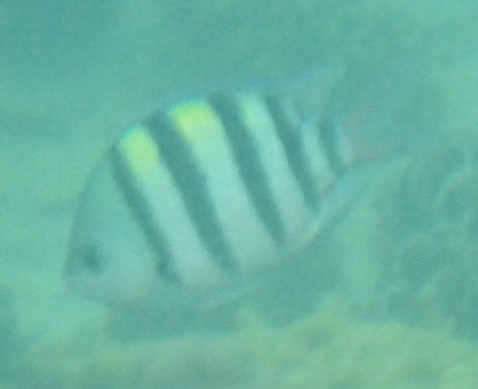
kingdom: Animalia
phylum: Chordata
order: Perciformes
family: Pomacentridae
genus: Abudefduf
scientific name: Abudefduf vaigiensis
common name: Indo-pacific sergeant
